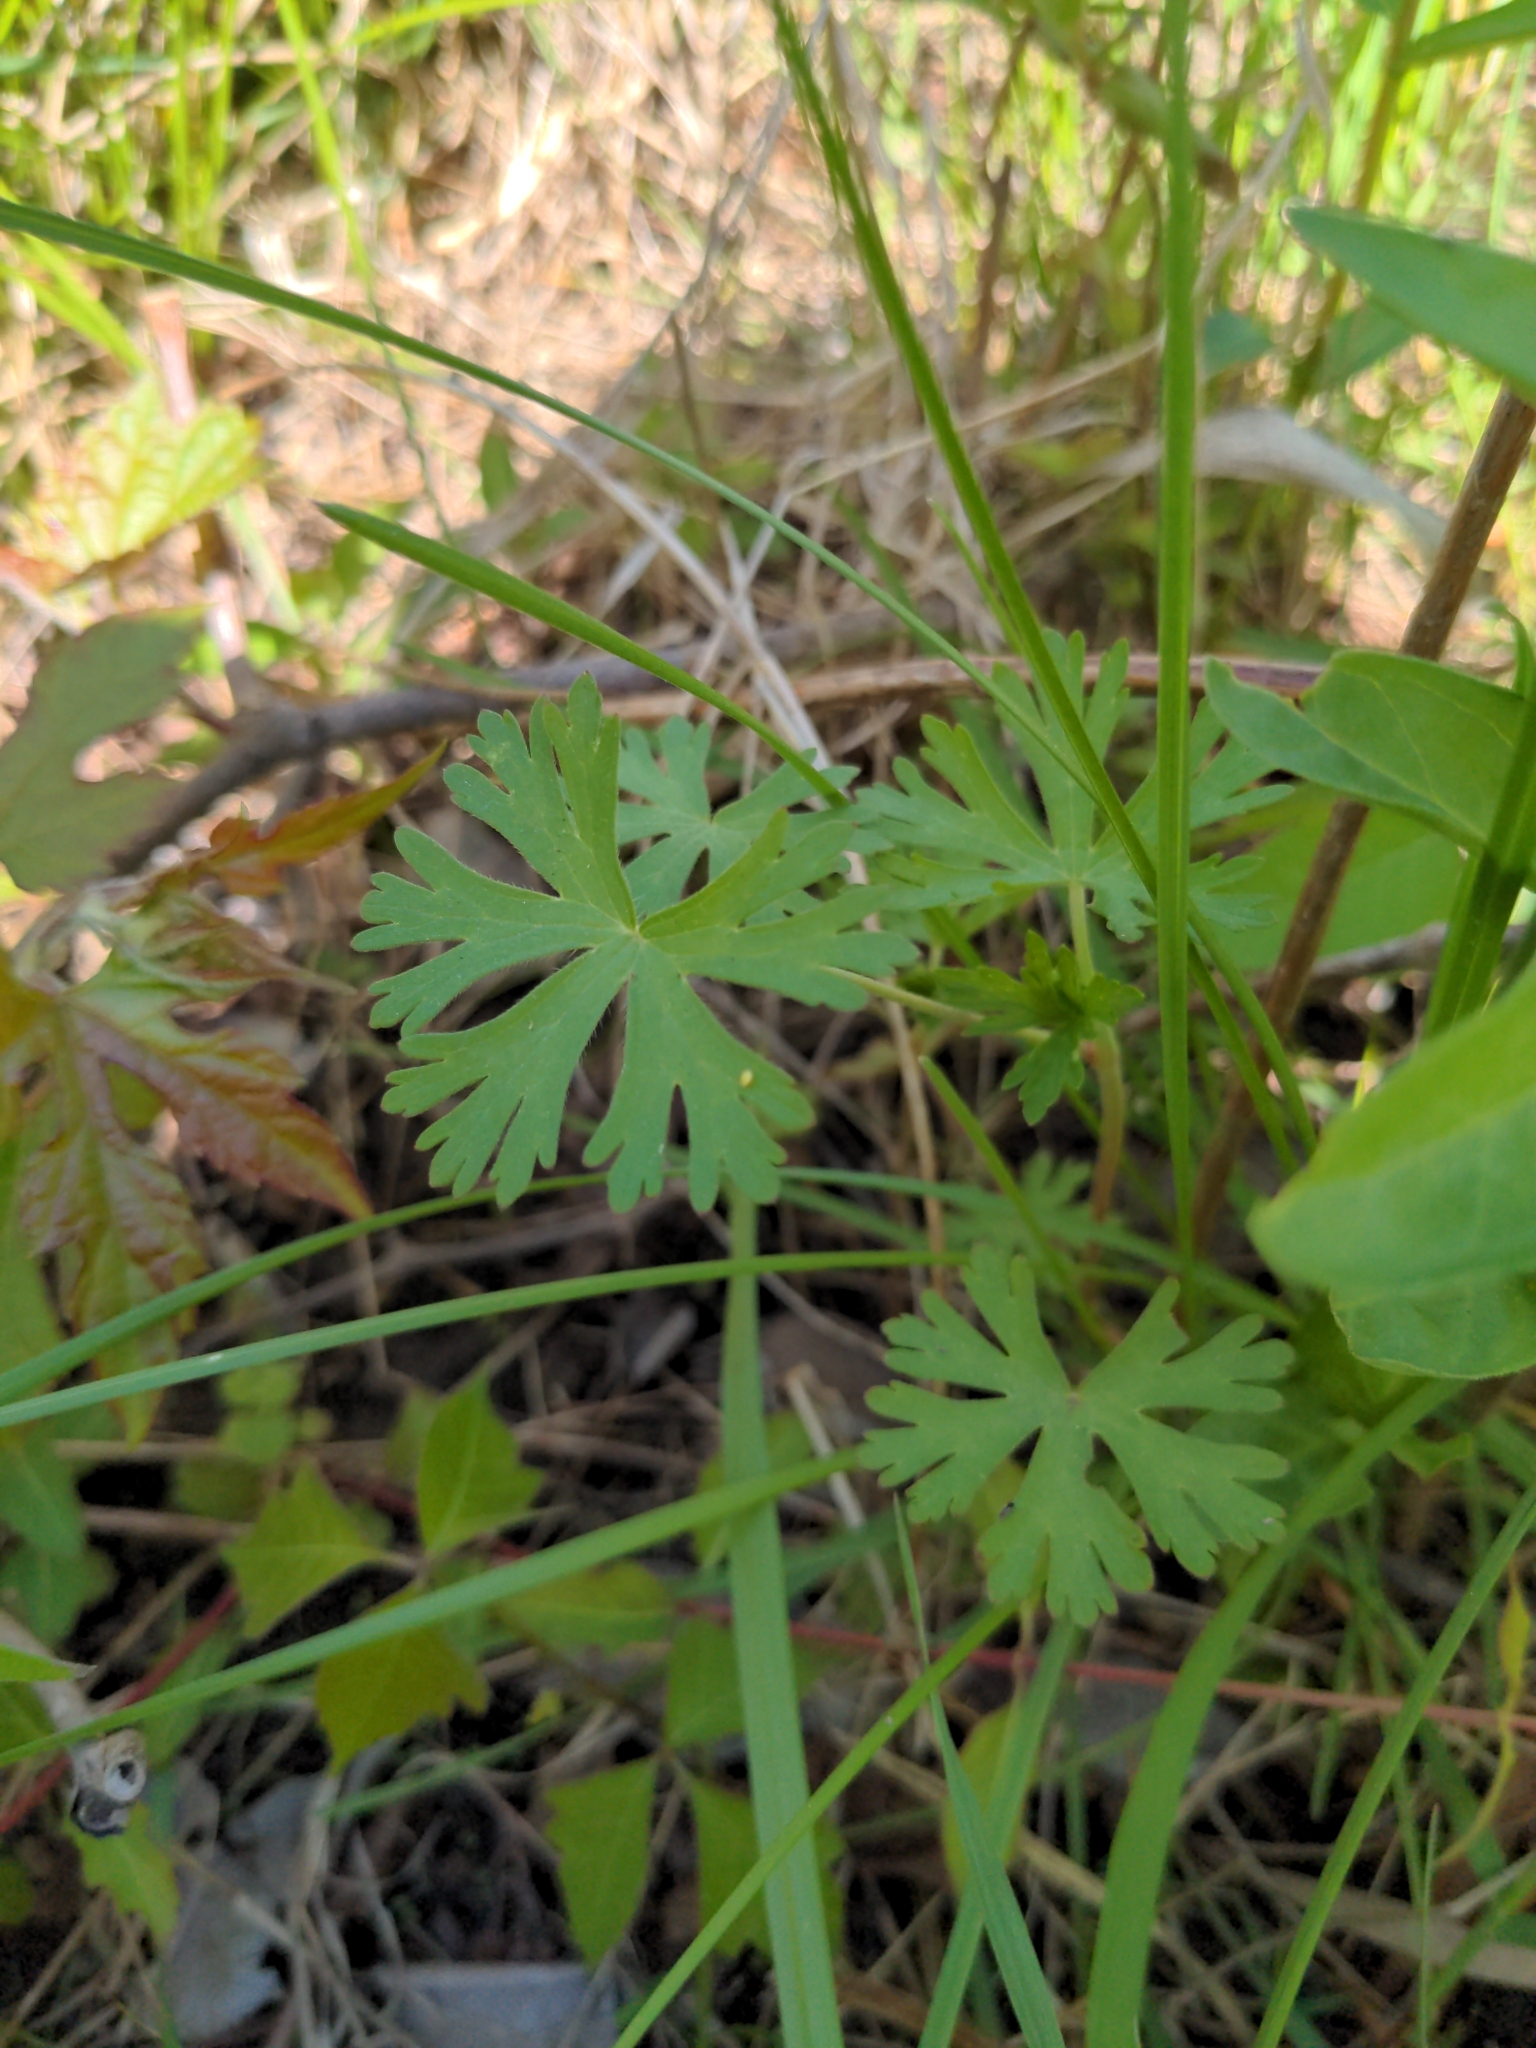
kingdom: Plantae
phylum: Tracheophyta
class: Magnoliopsida
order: Geraniales
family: Geraniaceae
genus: Geranium
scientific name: Geranium carolinianum
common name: Carolina crane's-bill
